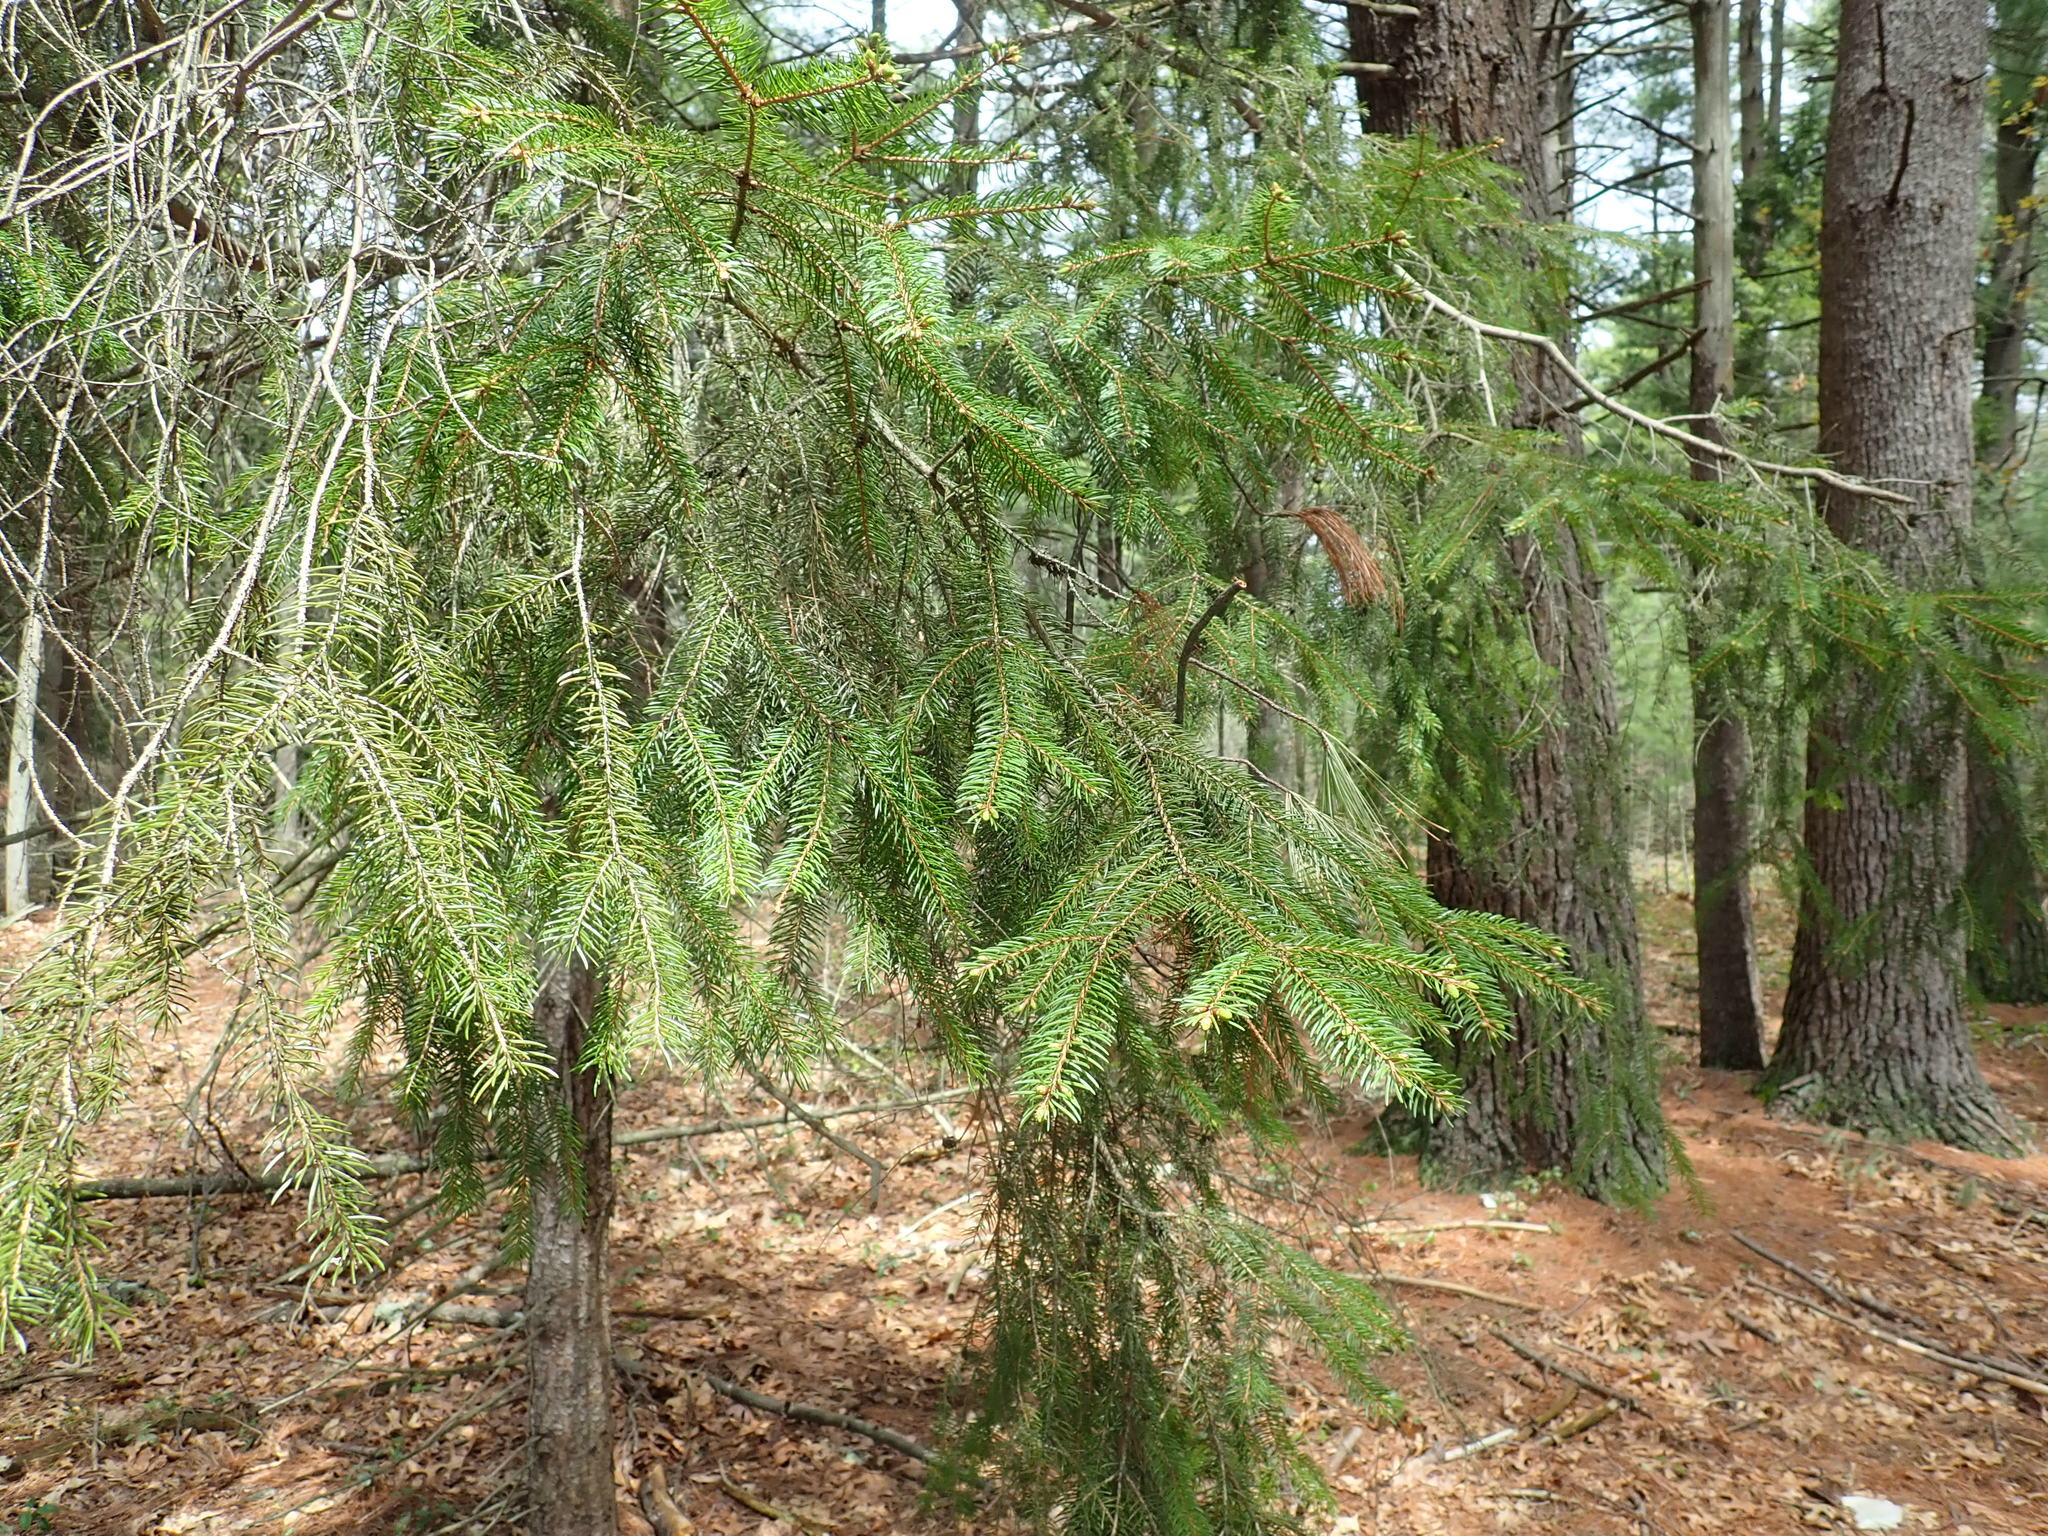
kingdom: Plantae
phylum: Tracheophyta
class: Pinopsida
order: Pinales
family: Pinaceae
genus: Picea
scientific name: Picea abies
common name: Norway spruce
